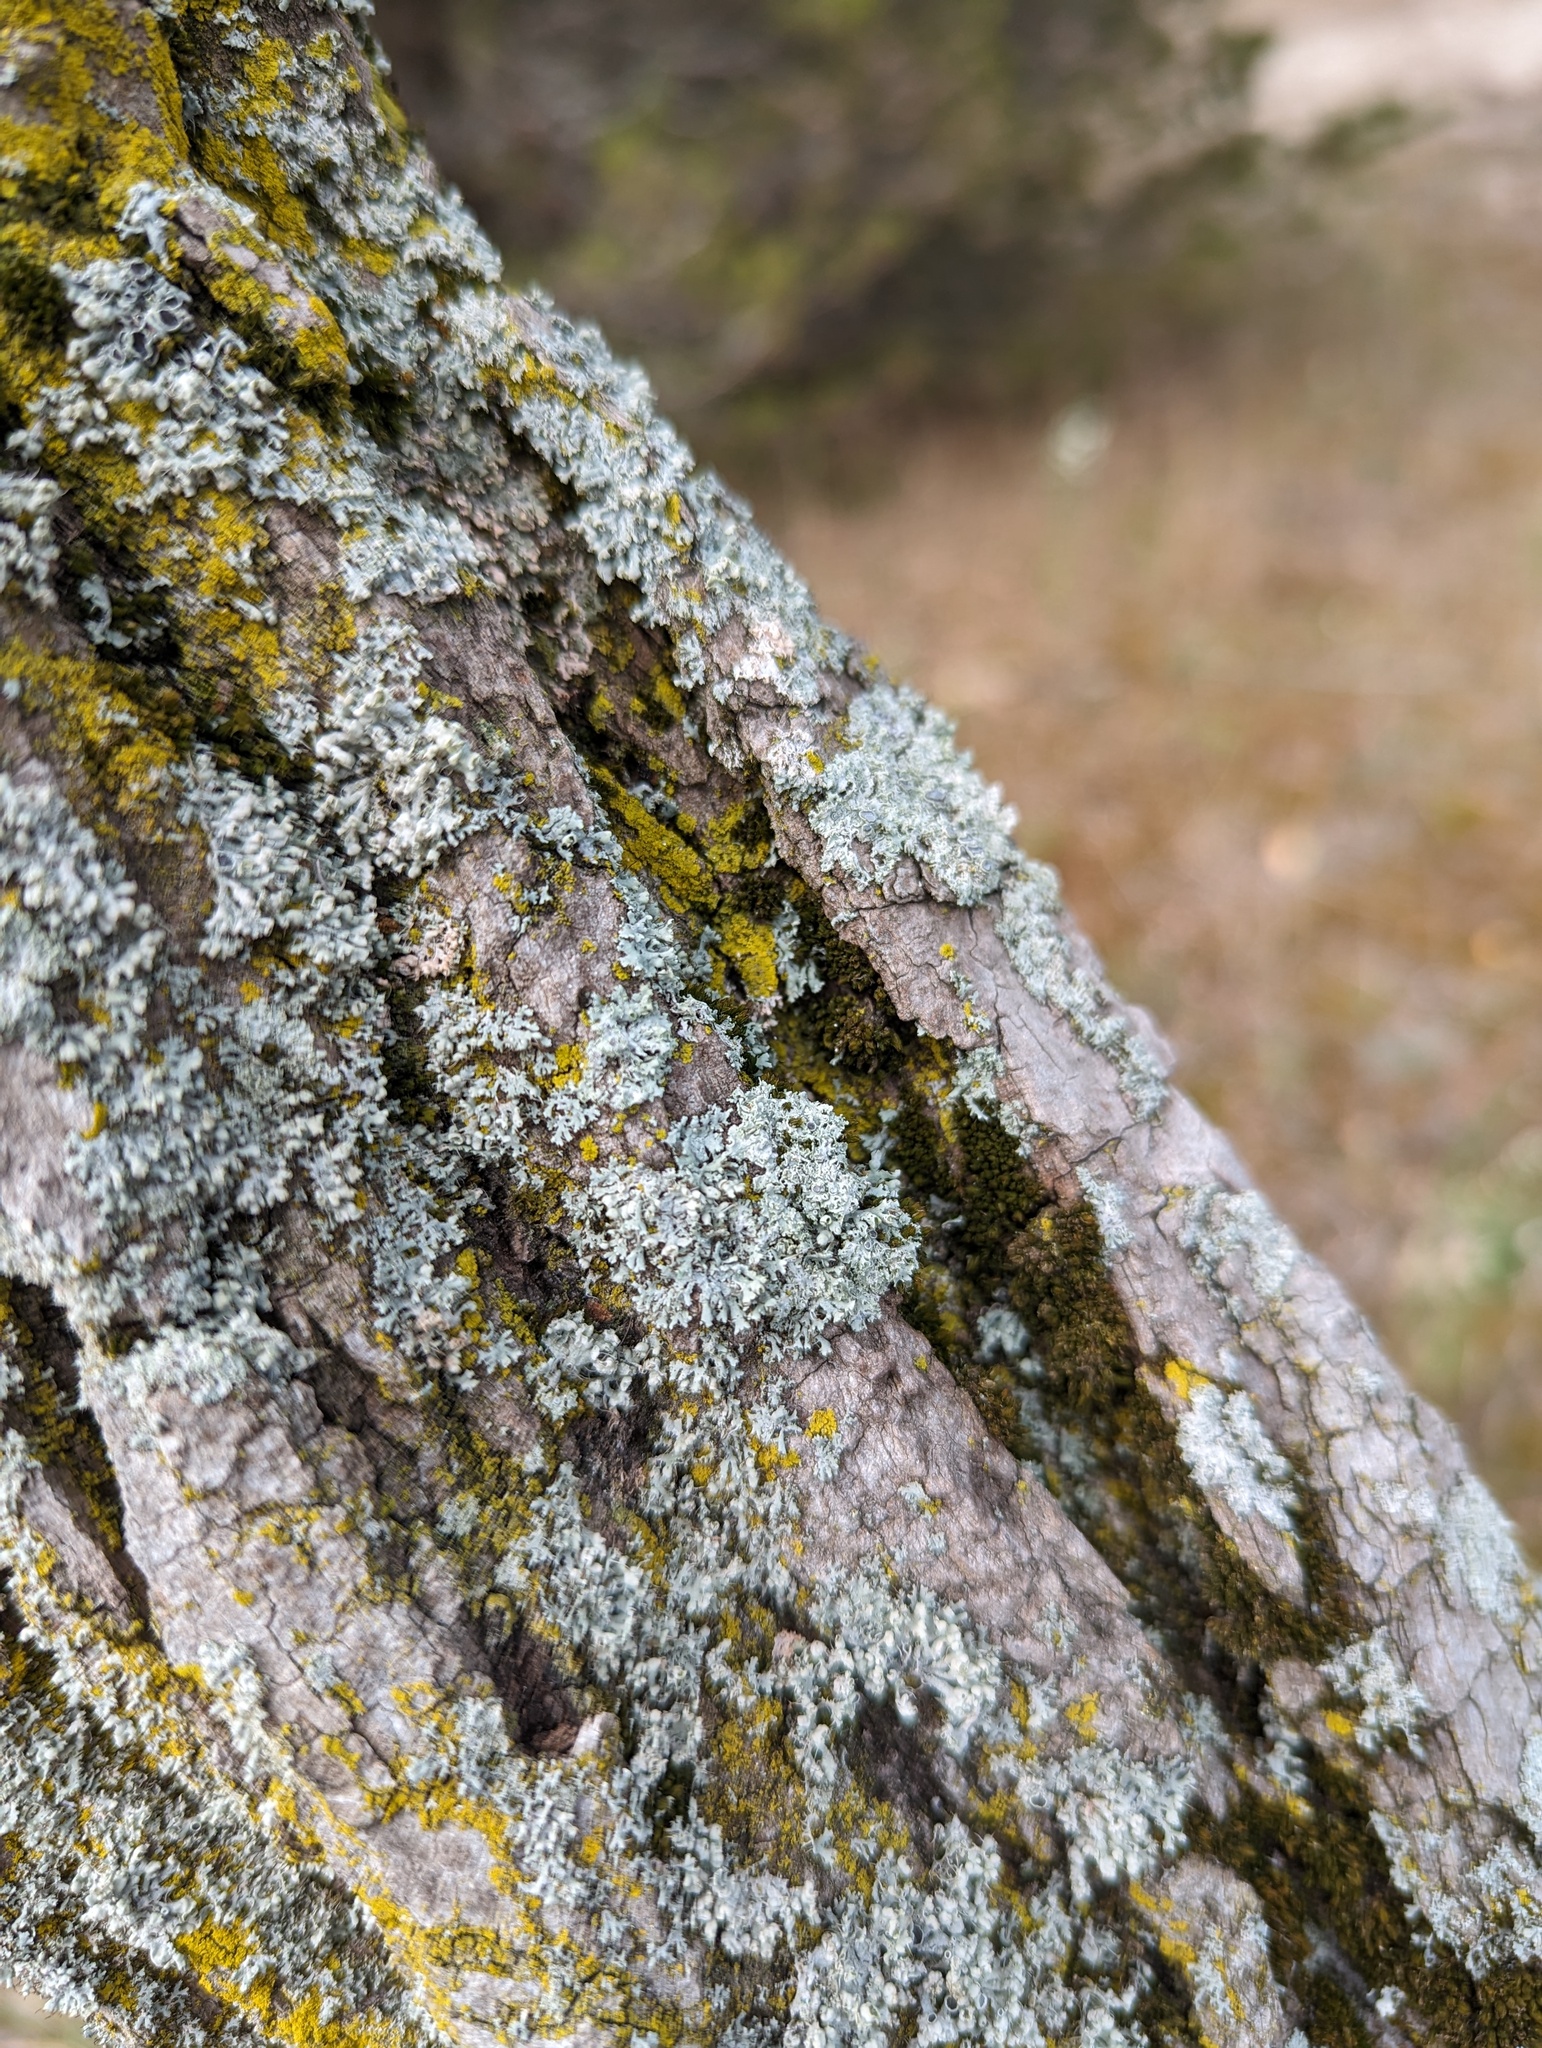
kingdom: Fungi
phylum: Ascomycota
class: Lecanoromycetes
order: Caliciales
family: Physciaceae
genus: Physcia
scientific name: Physcia millegrana
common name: Rosette lichen
